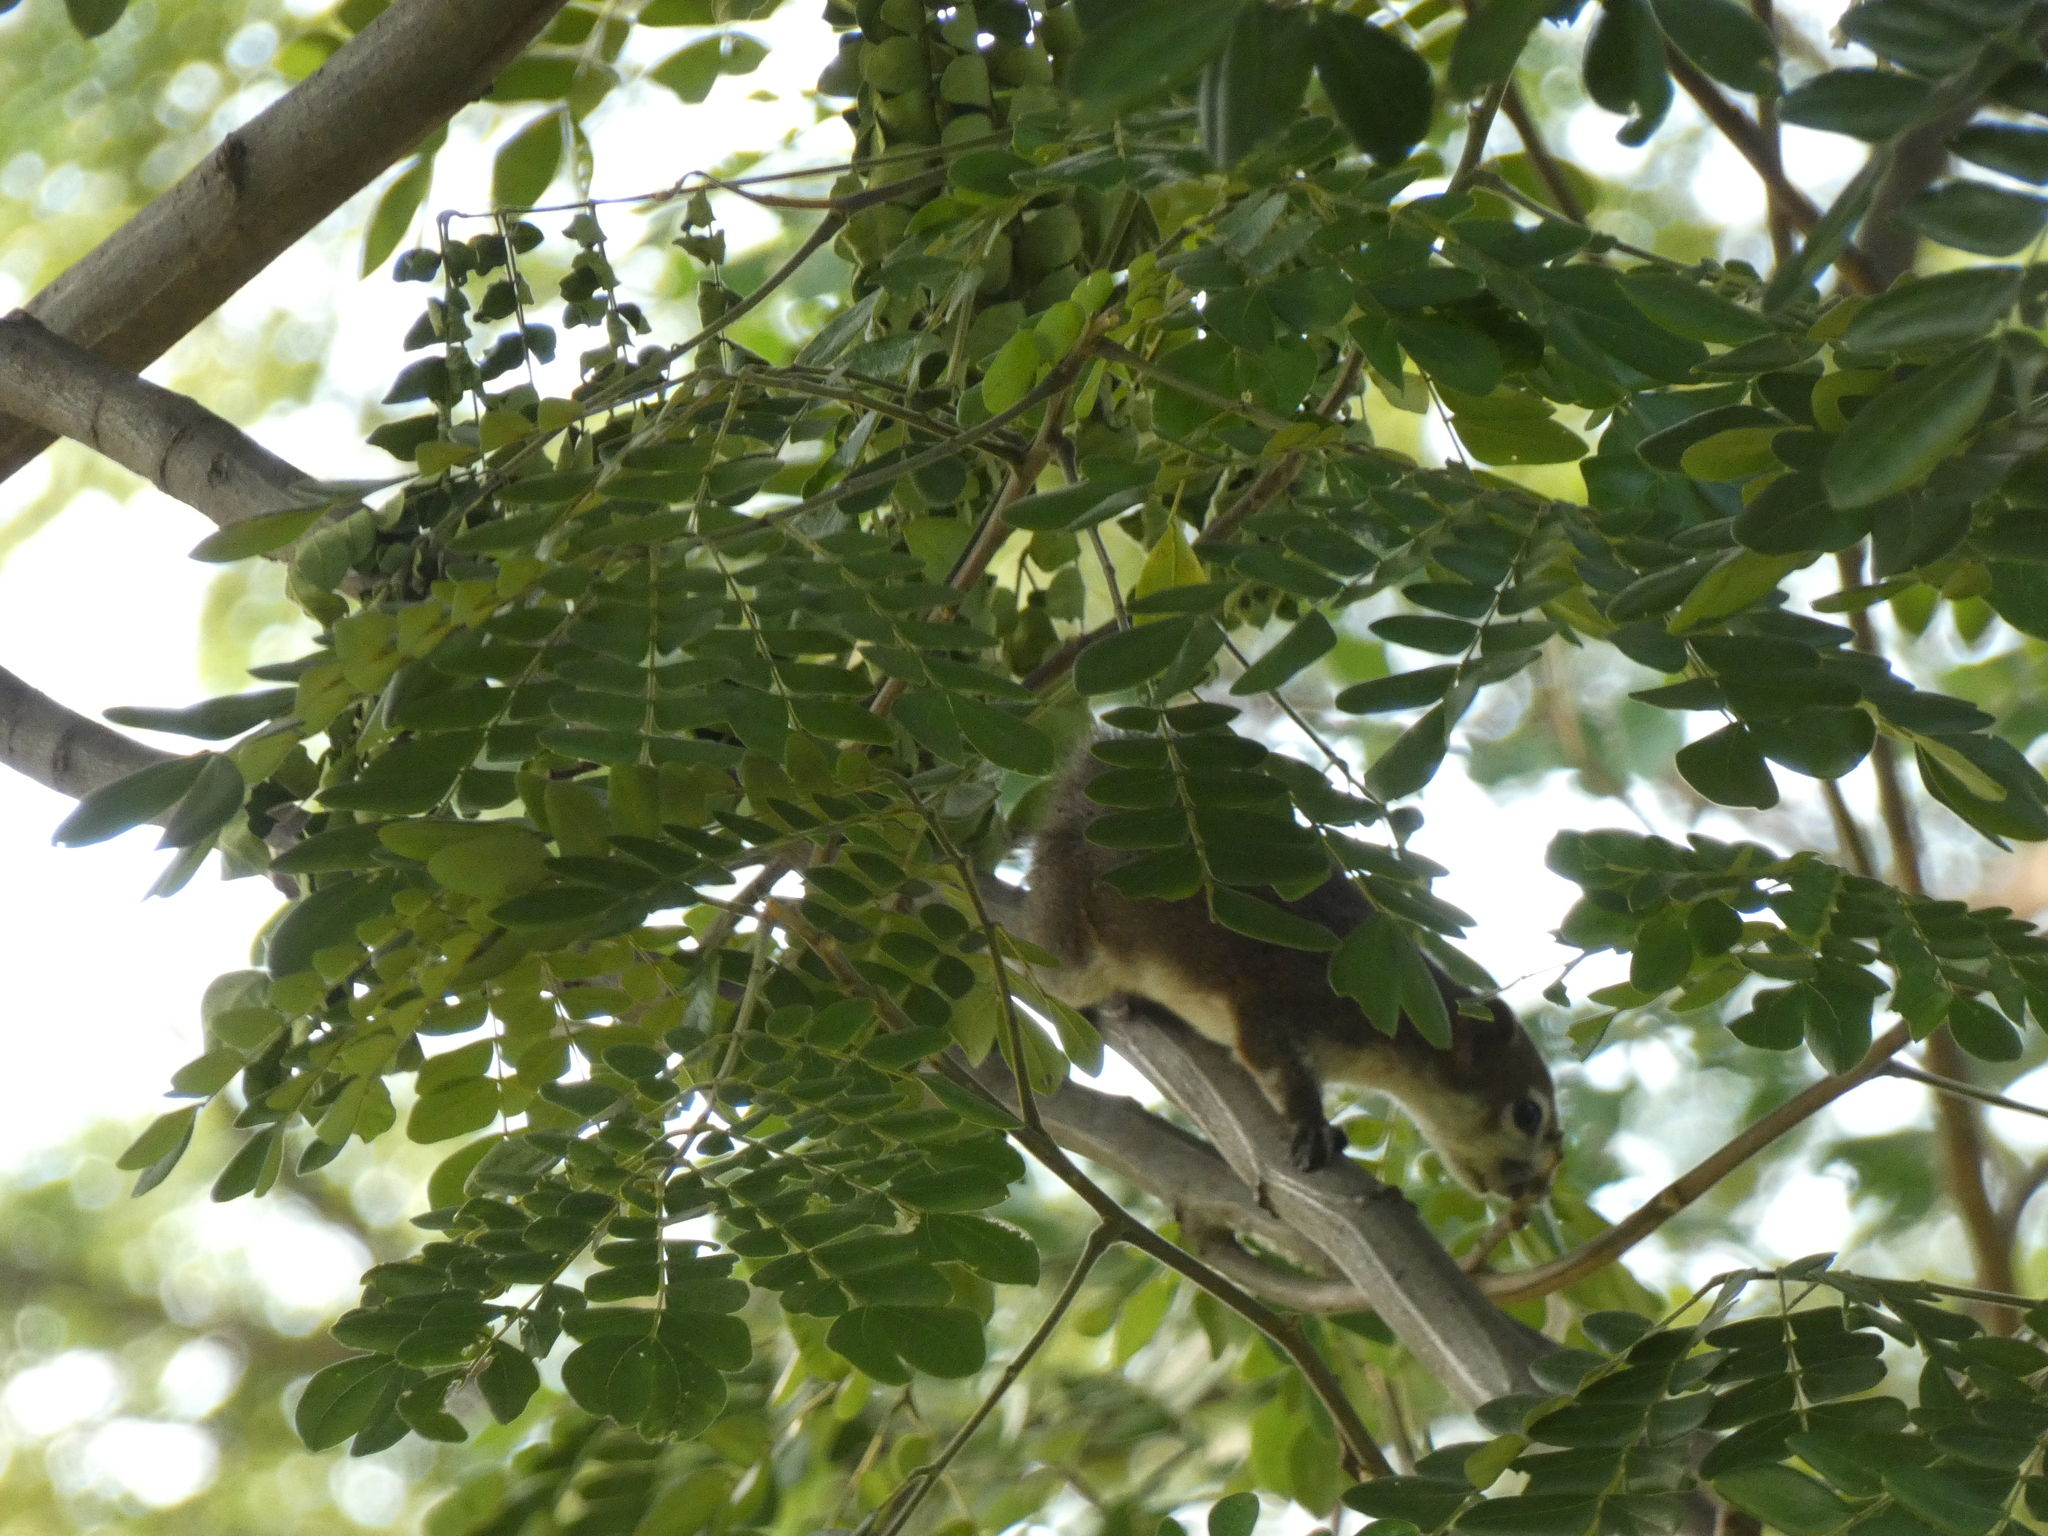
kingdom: Animalia
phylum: Chordata
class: Mammalia
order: Rodentia
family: Sciuridae
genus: Callosciurus
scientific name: Callosciurus finlaysonii
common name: Finlayson's squirrel
